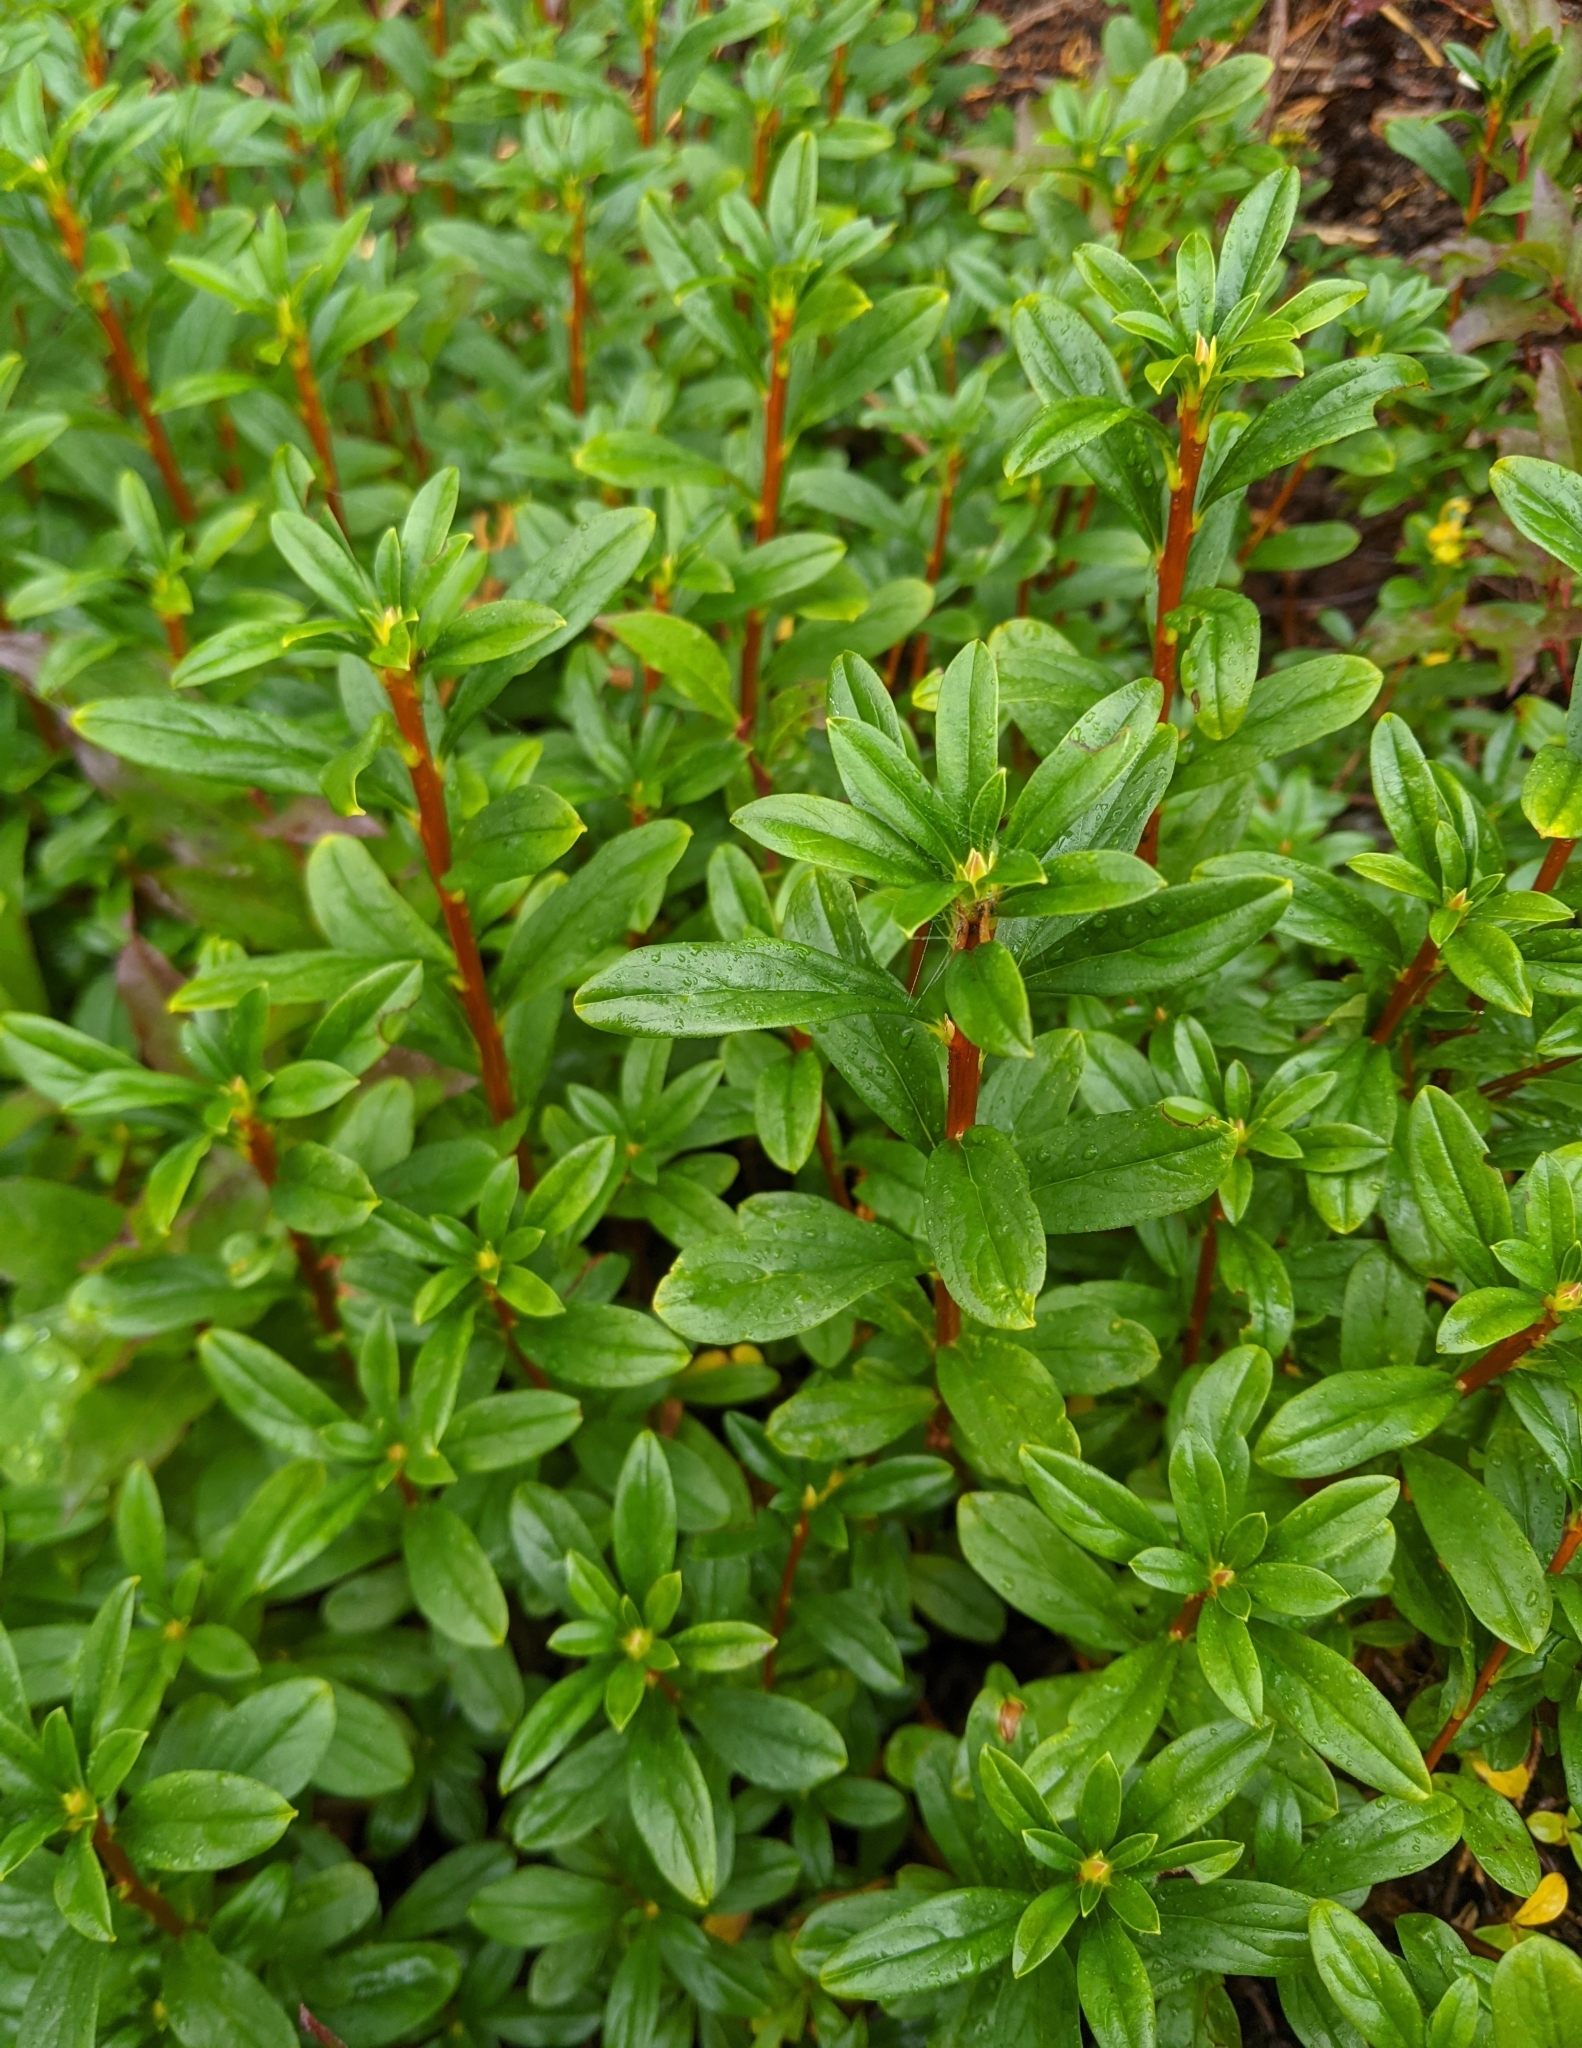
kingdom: Plantae
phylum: Tracheophyta
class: Magnoliopsida
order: Ericales
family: Ericaceae
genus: Elliottia
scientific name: Elliottia pyroliflora
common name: Copperbush
